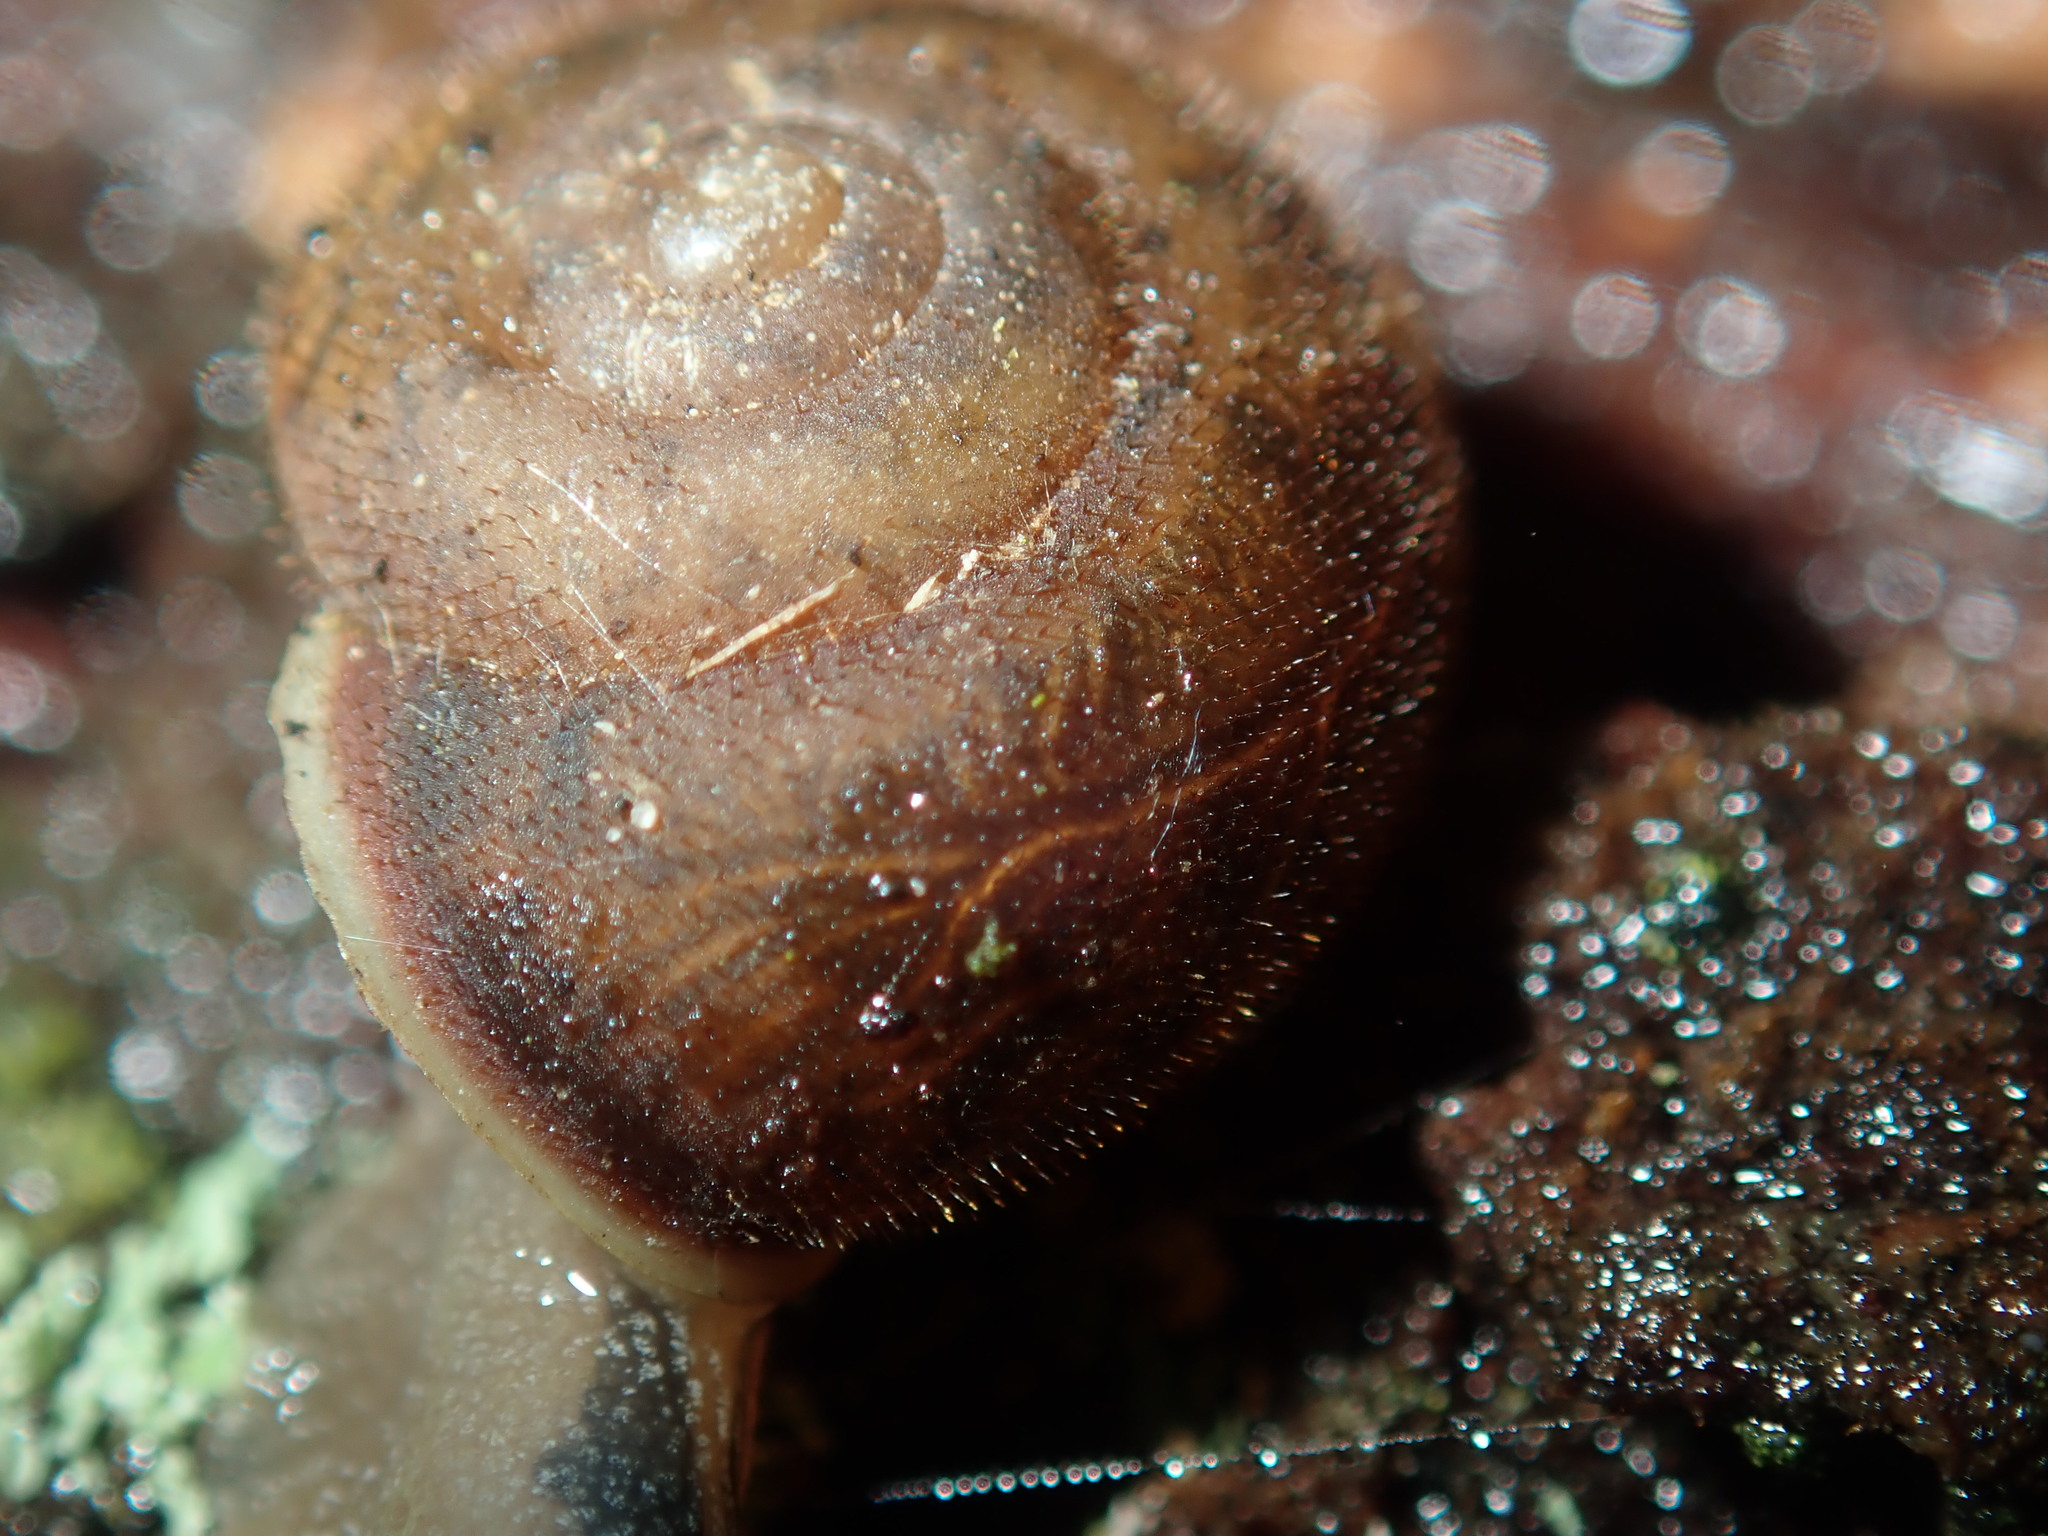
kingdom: Animalia
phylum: Mollusca
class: Gastropoda
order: Stylommatophora
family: Camaenidae
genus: Austrochloritis
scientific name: Austrochloritis wollemiensis
